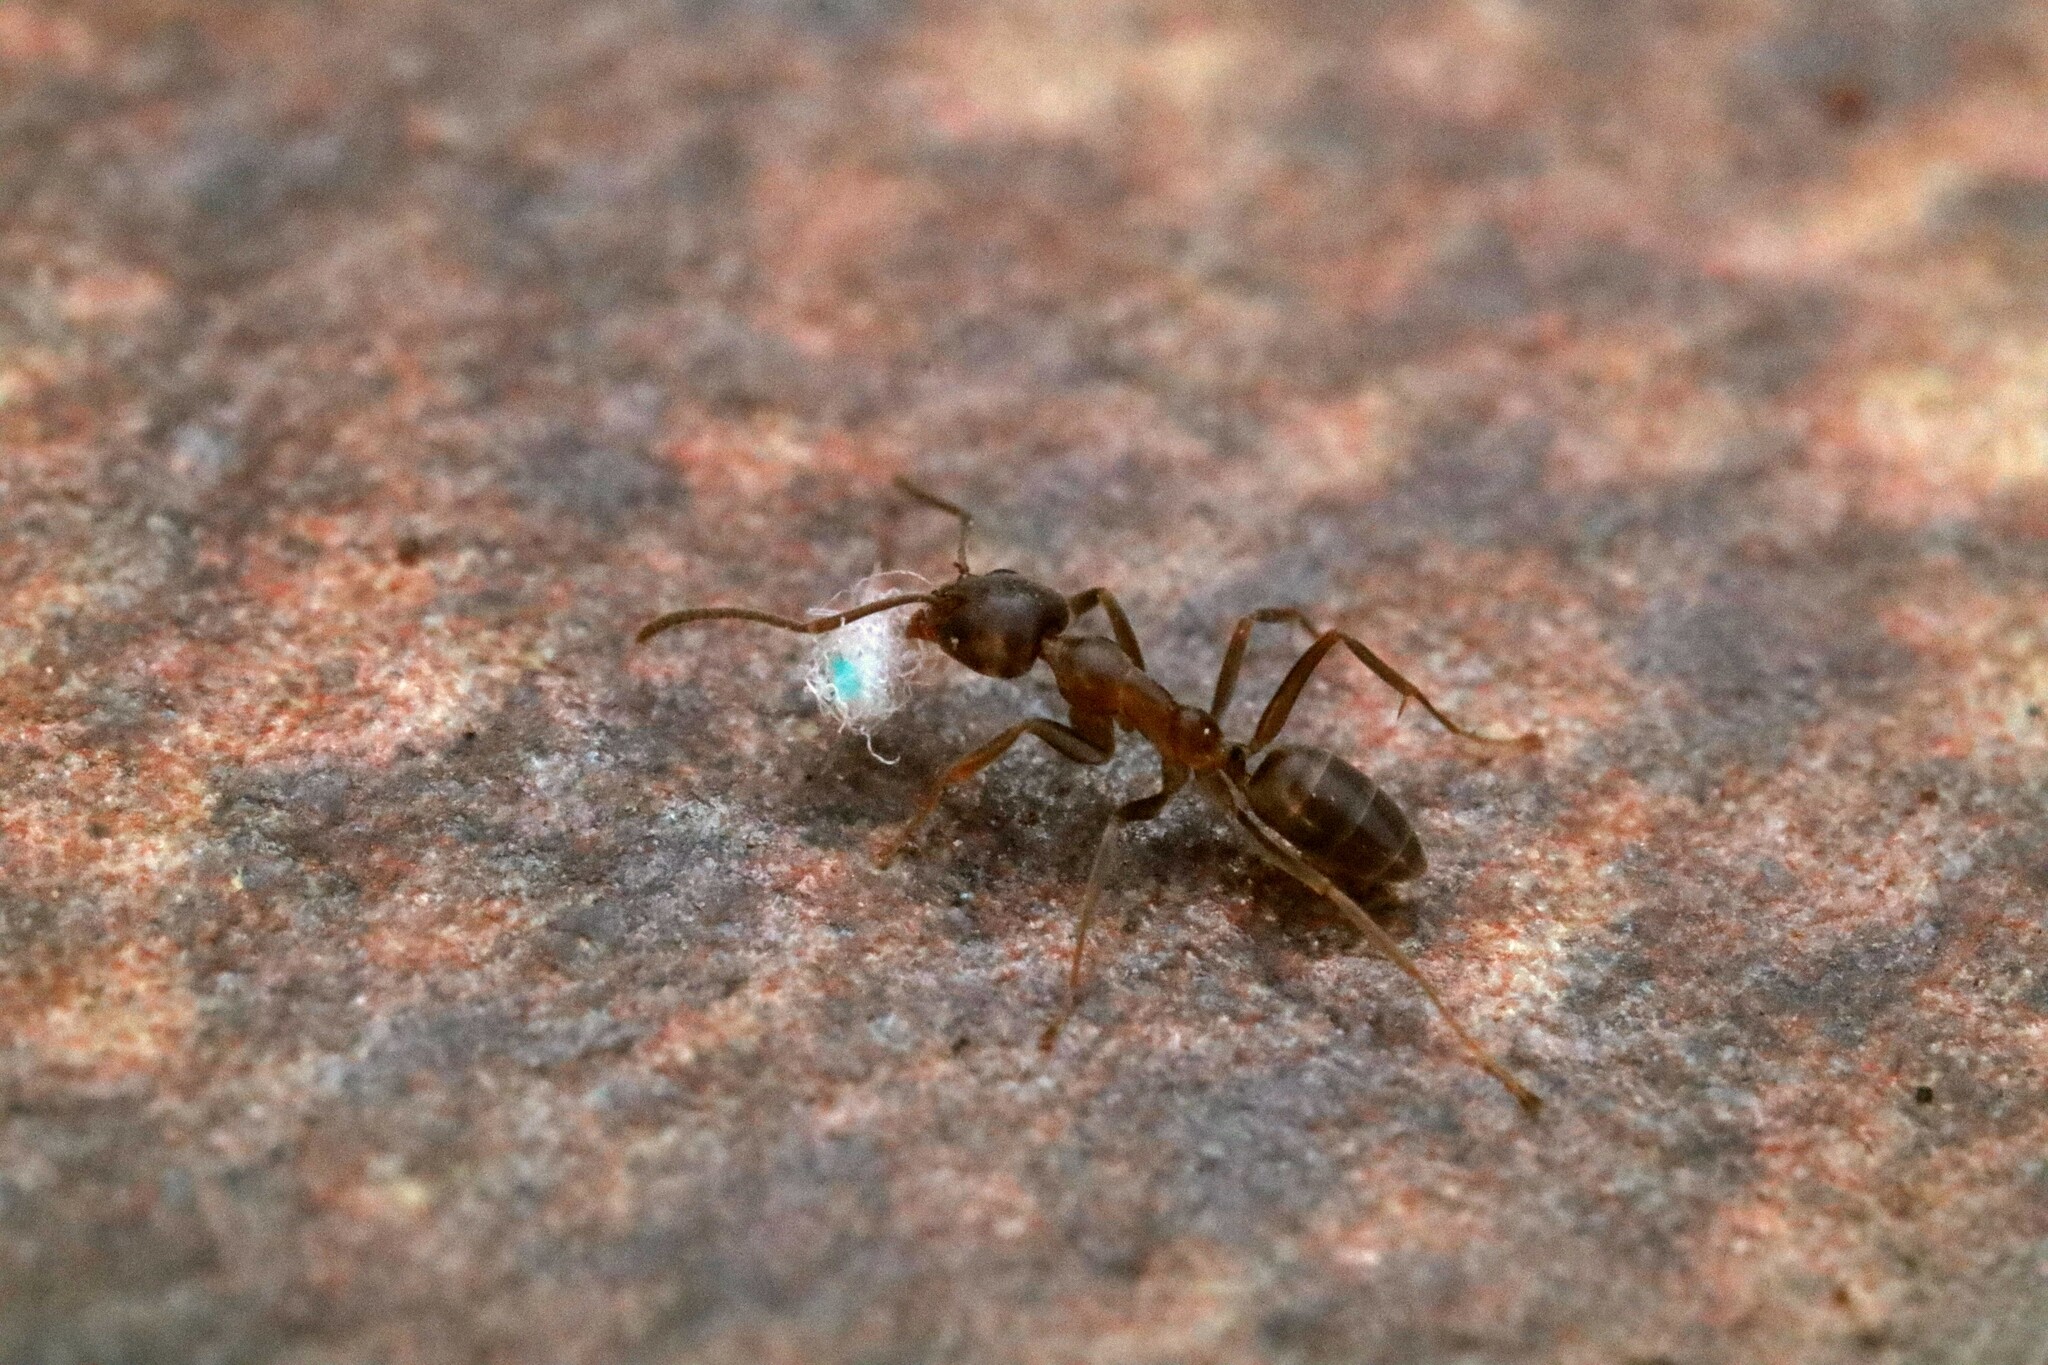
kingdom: Animalia
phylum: Arthropoda
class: Insecta
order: Hymenoptera
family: Formicidae
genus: Linepithema
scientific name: Linepithema humile
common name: Argentine ant
